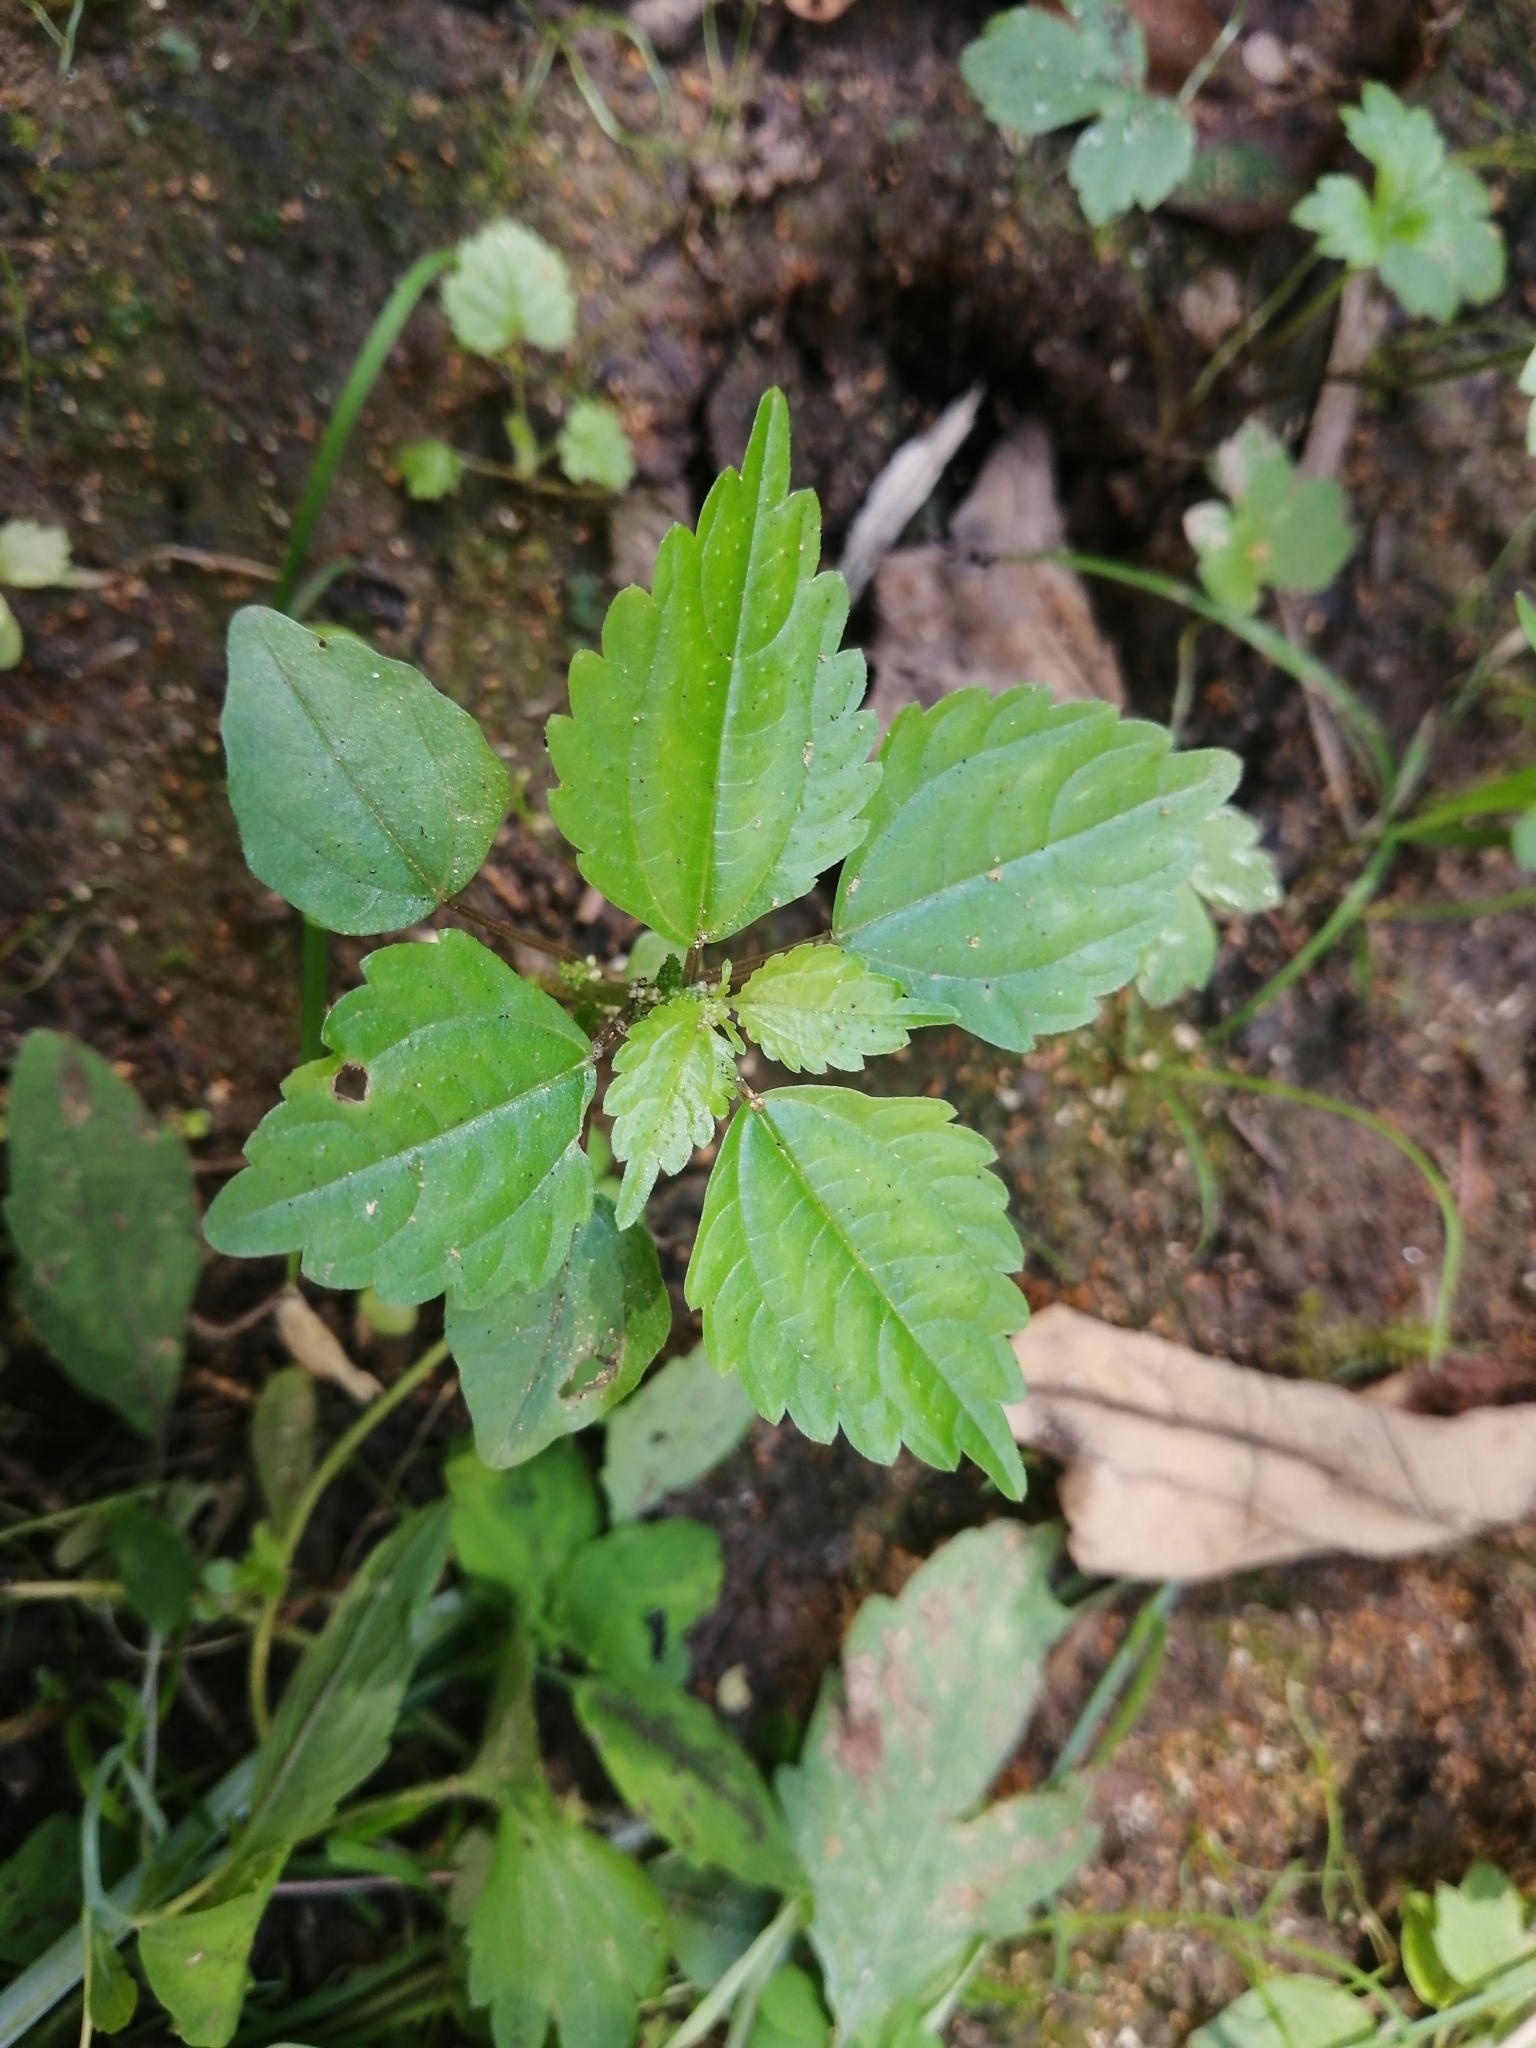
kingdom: Plantae
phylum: Tracheophyta
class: Magnoliopsida
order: Rosales
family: Urticaceae
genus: Pilea
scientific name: Pilea pumila
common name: Clearweed
